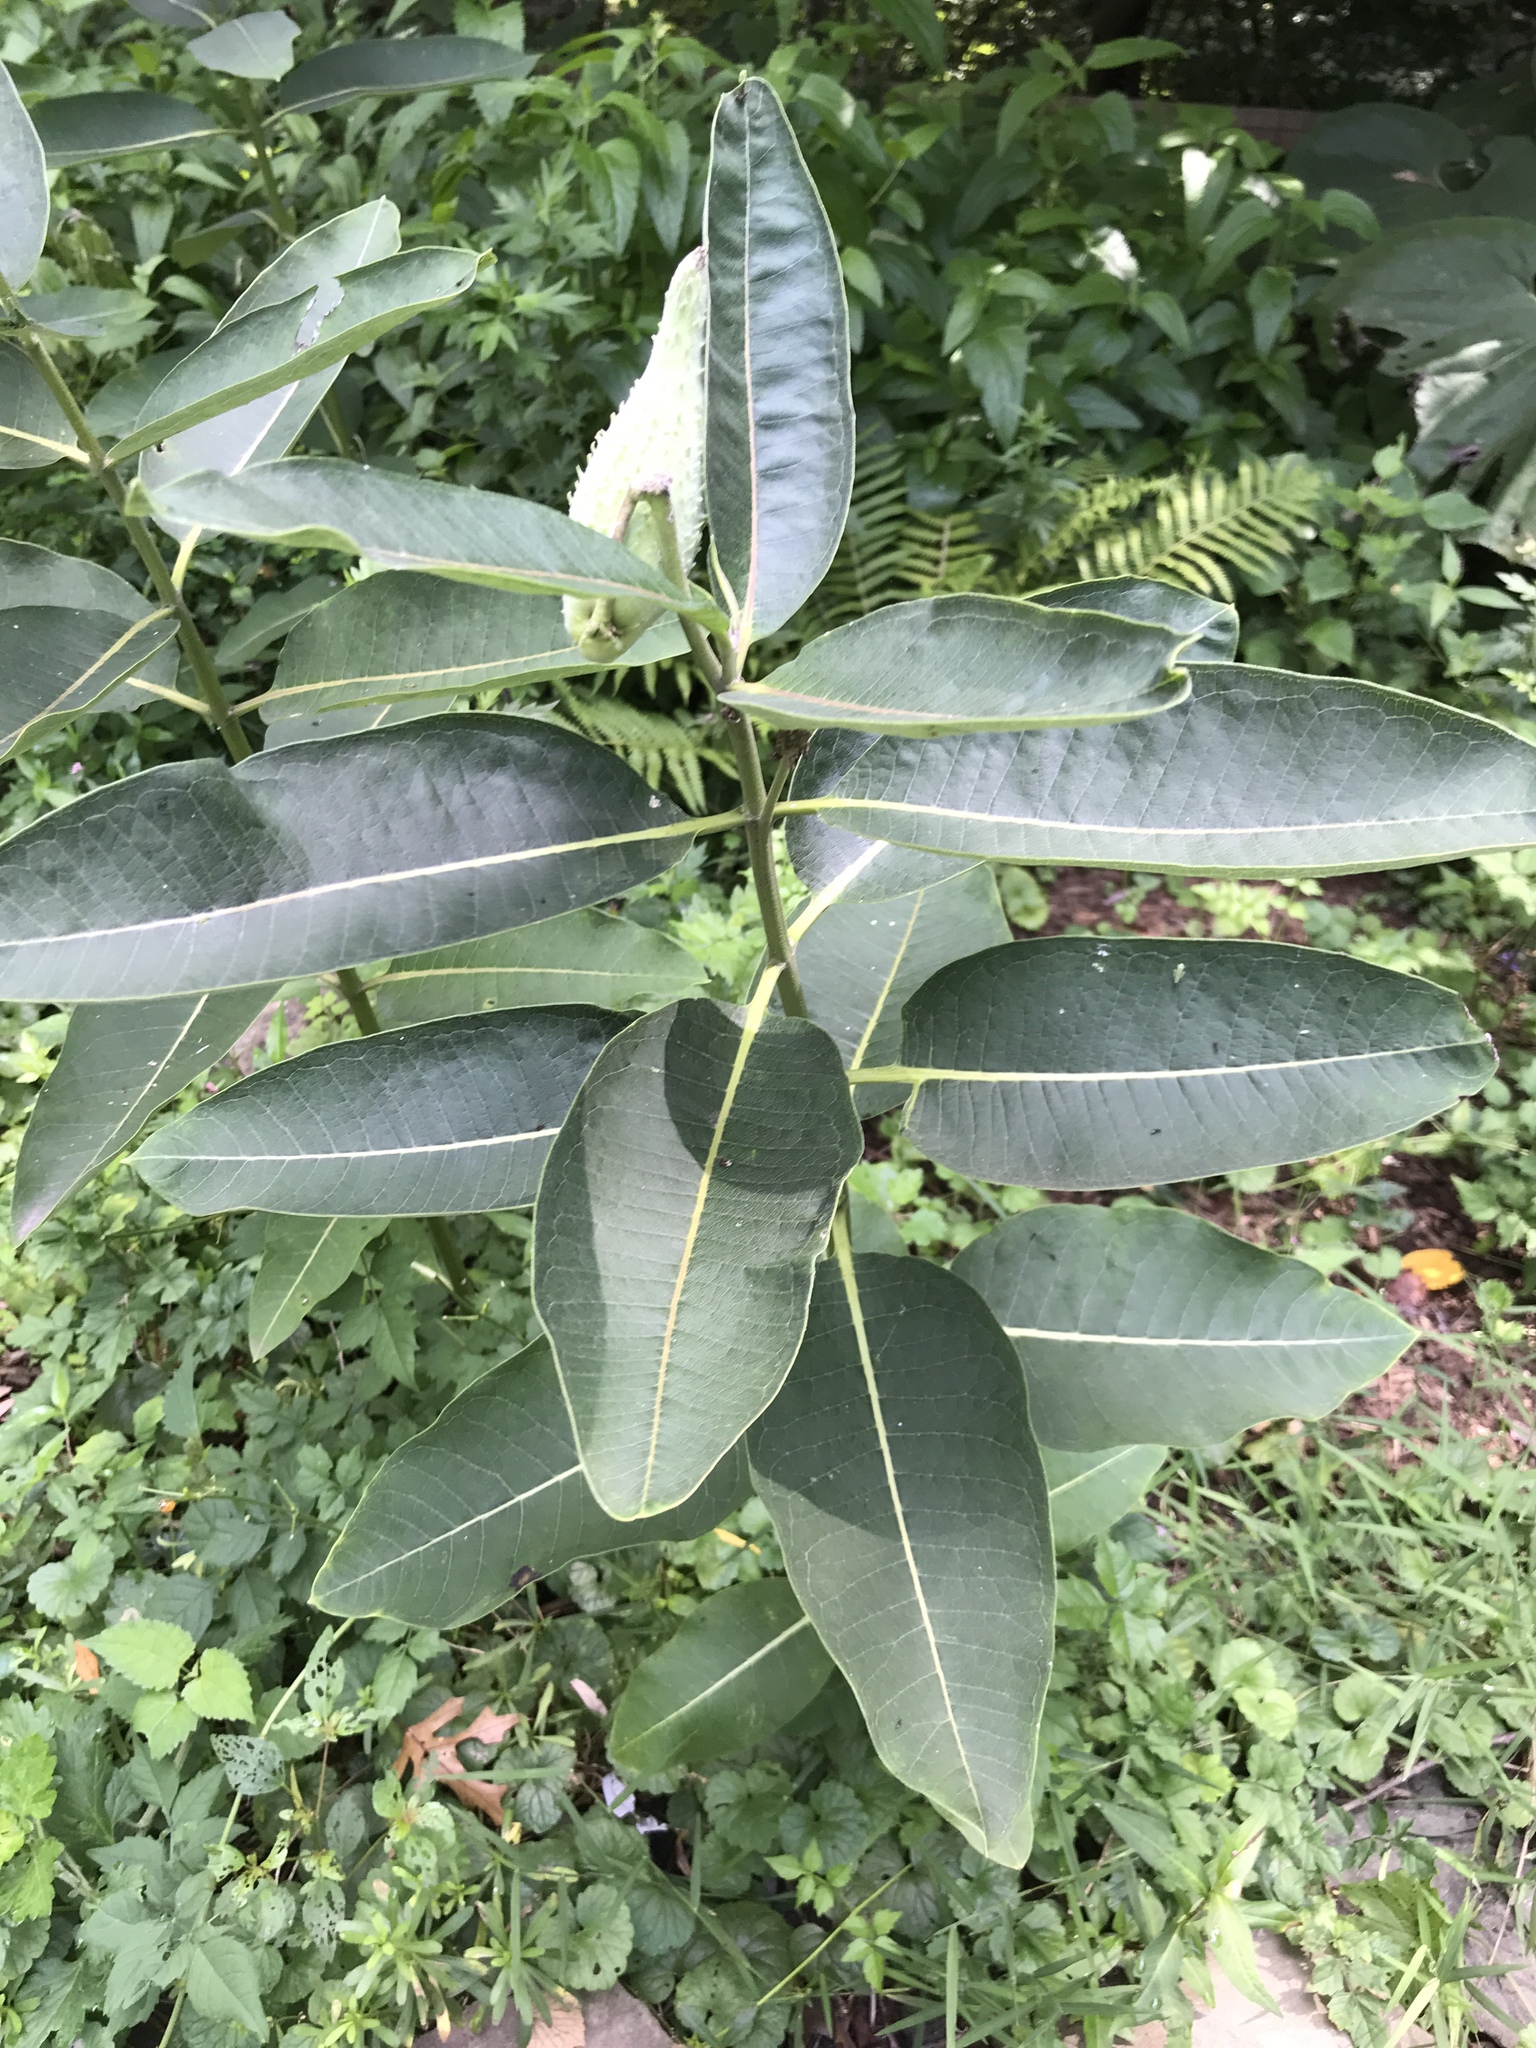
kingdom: Plantae
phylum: Tracheophyta
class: Magnoliopsida
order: Gentianales
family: Apocynaceae
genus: Asclepias
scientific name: Asclepias syriaca
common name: Common milkweed
